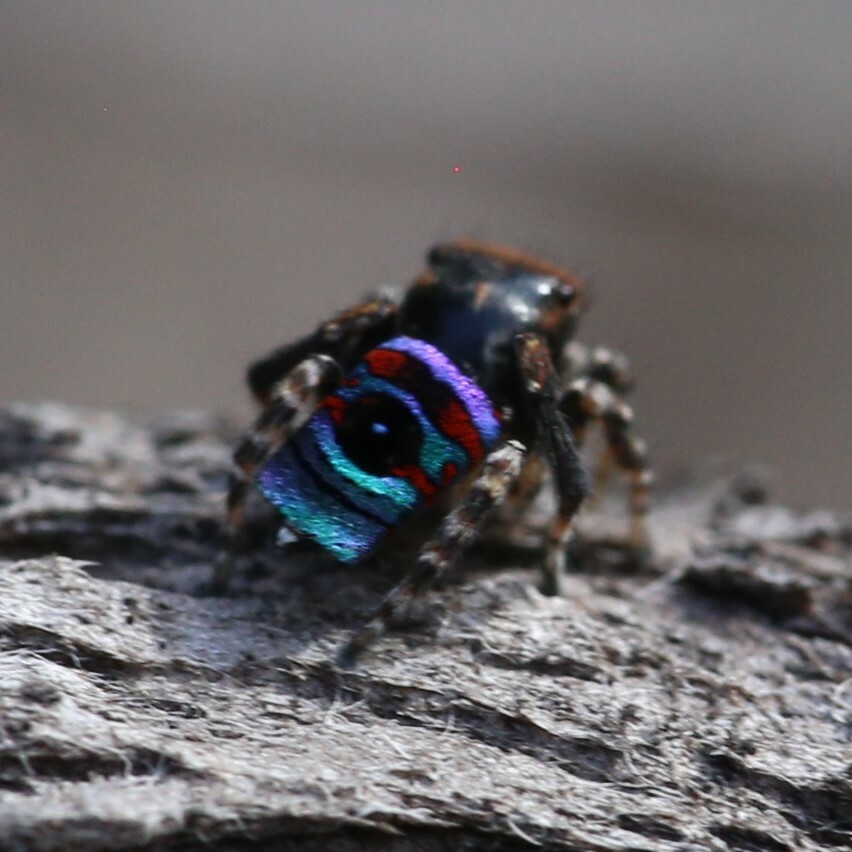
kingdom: Animalia
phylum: Arthropoda
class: Arachnida
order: Araneae
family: Salticidae
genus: Maratus
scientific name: Maratus karrie
